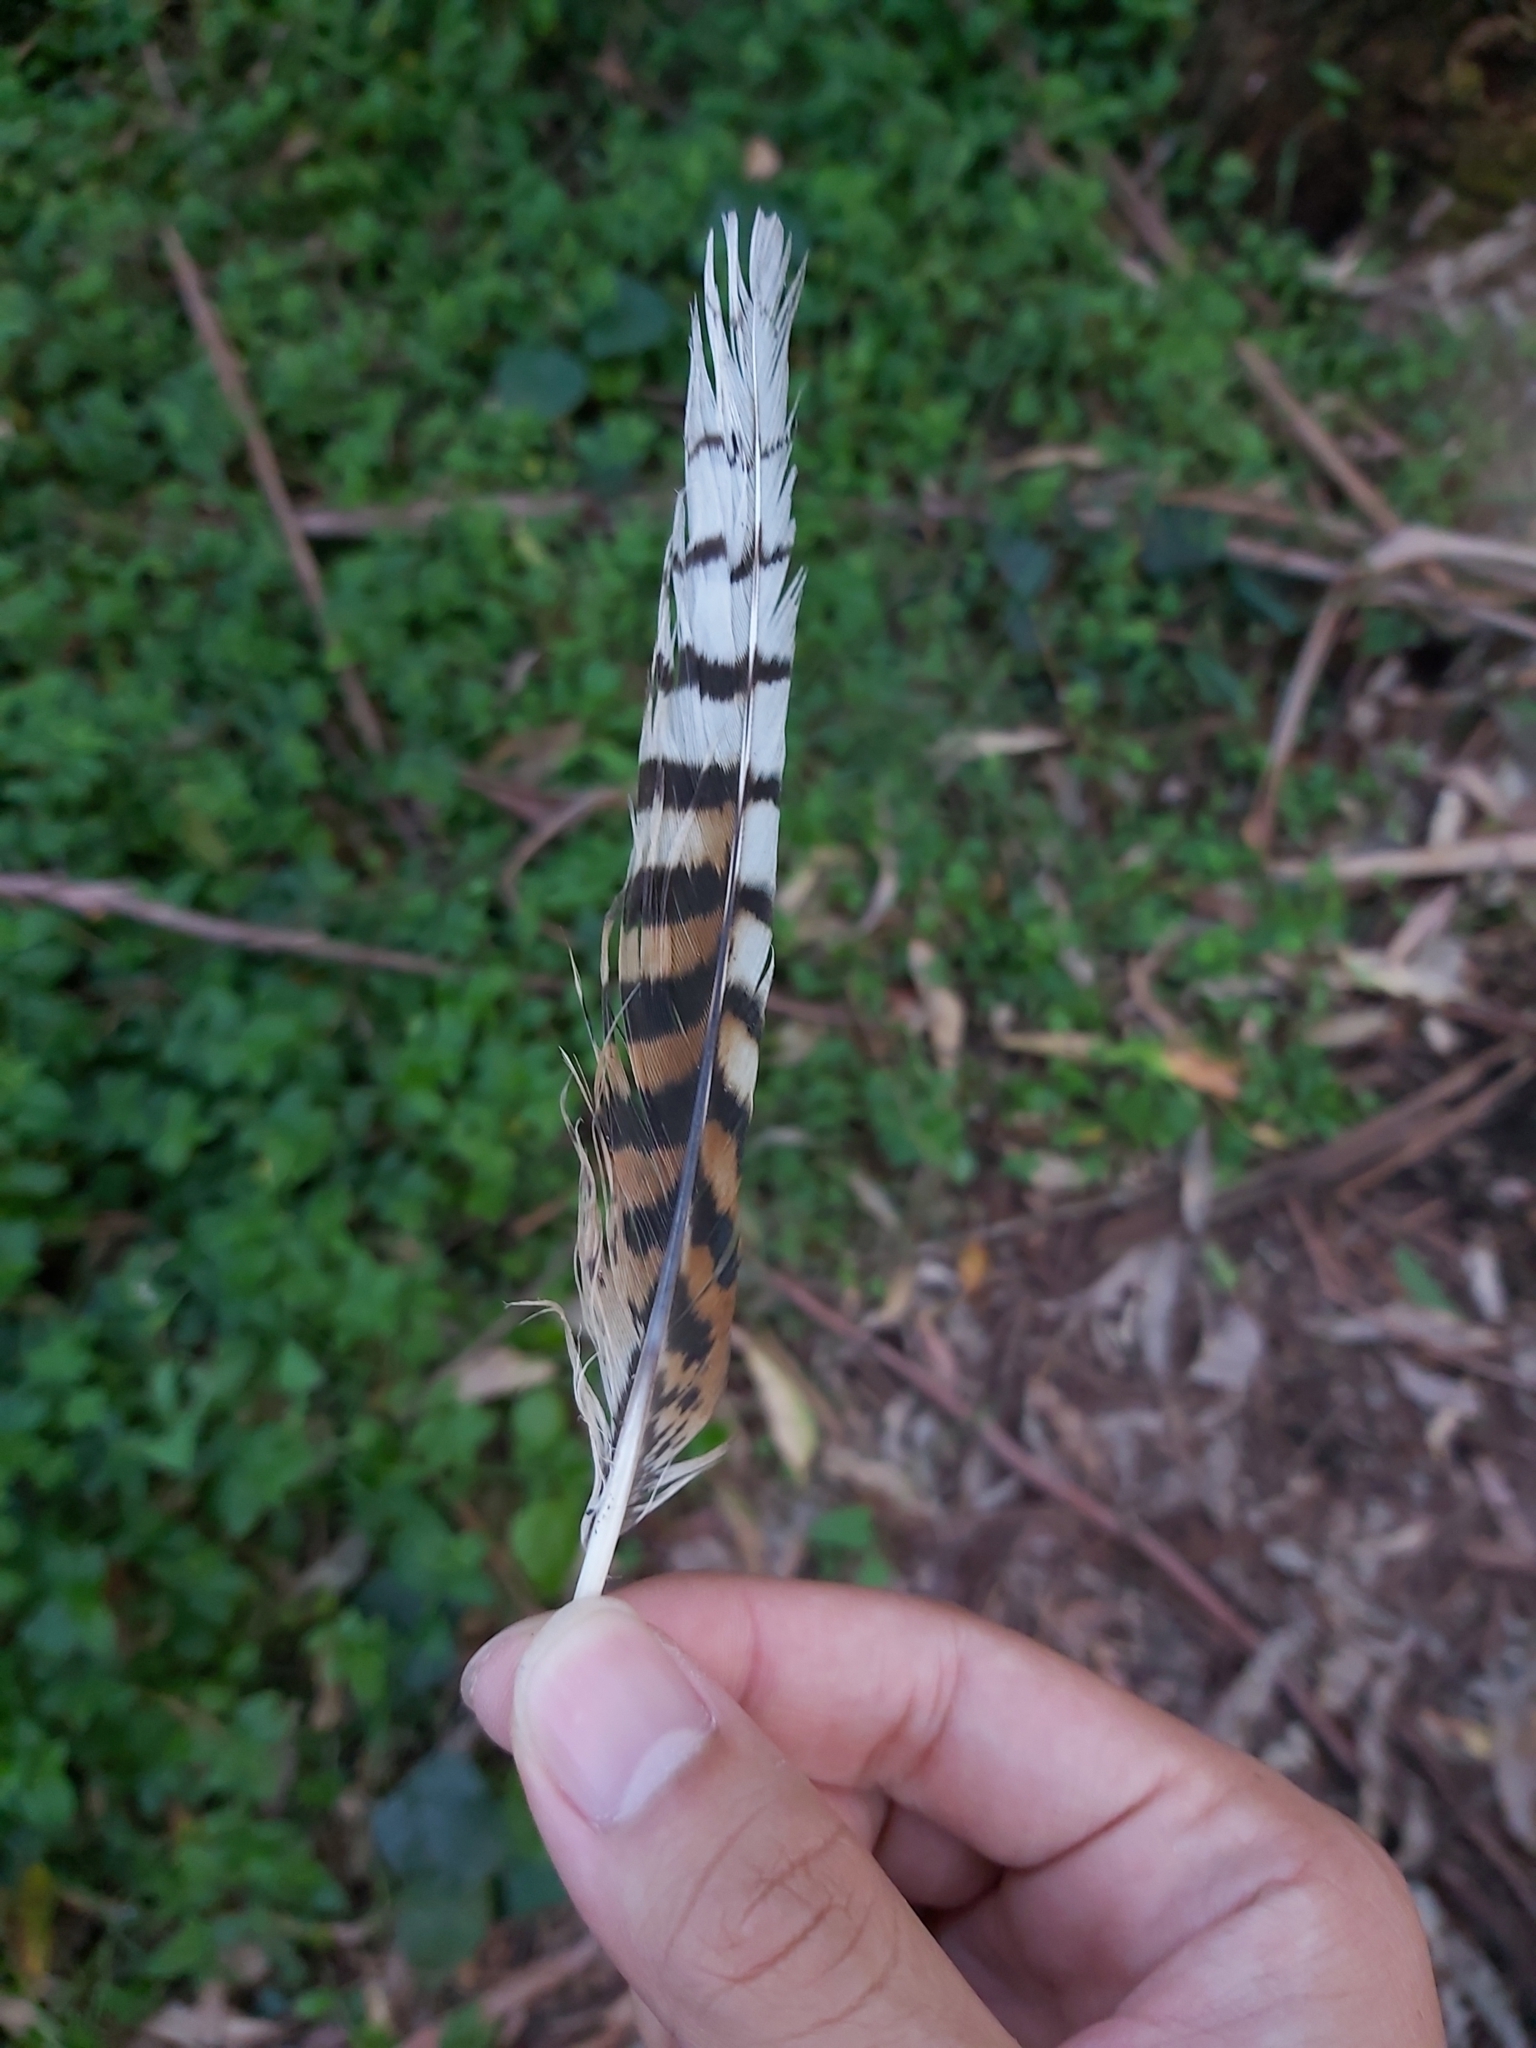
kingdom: Animalia
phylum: Chordata
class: Aves
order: Coraciiformes
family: Alcedinidae
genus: Dacelo
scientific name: Dacelo novaeguineae
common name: Laughing kookaburra
